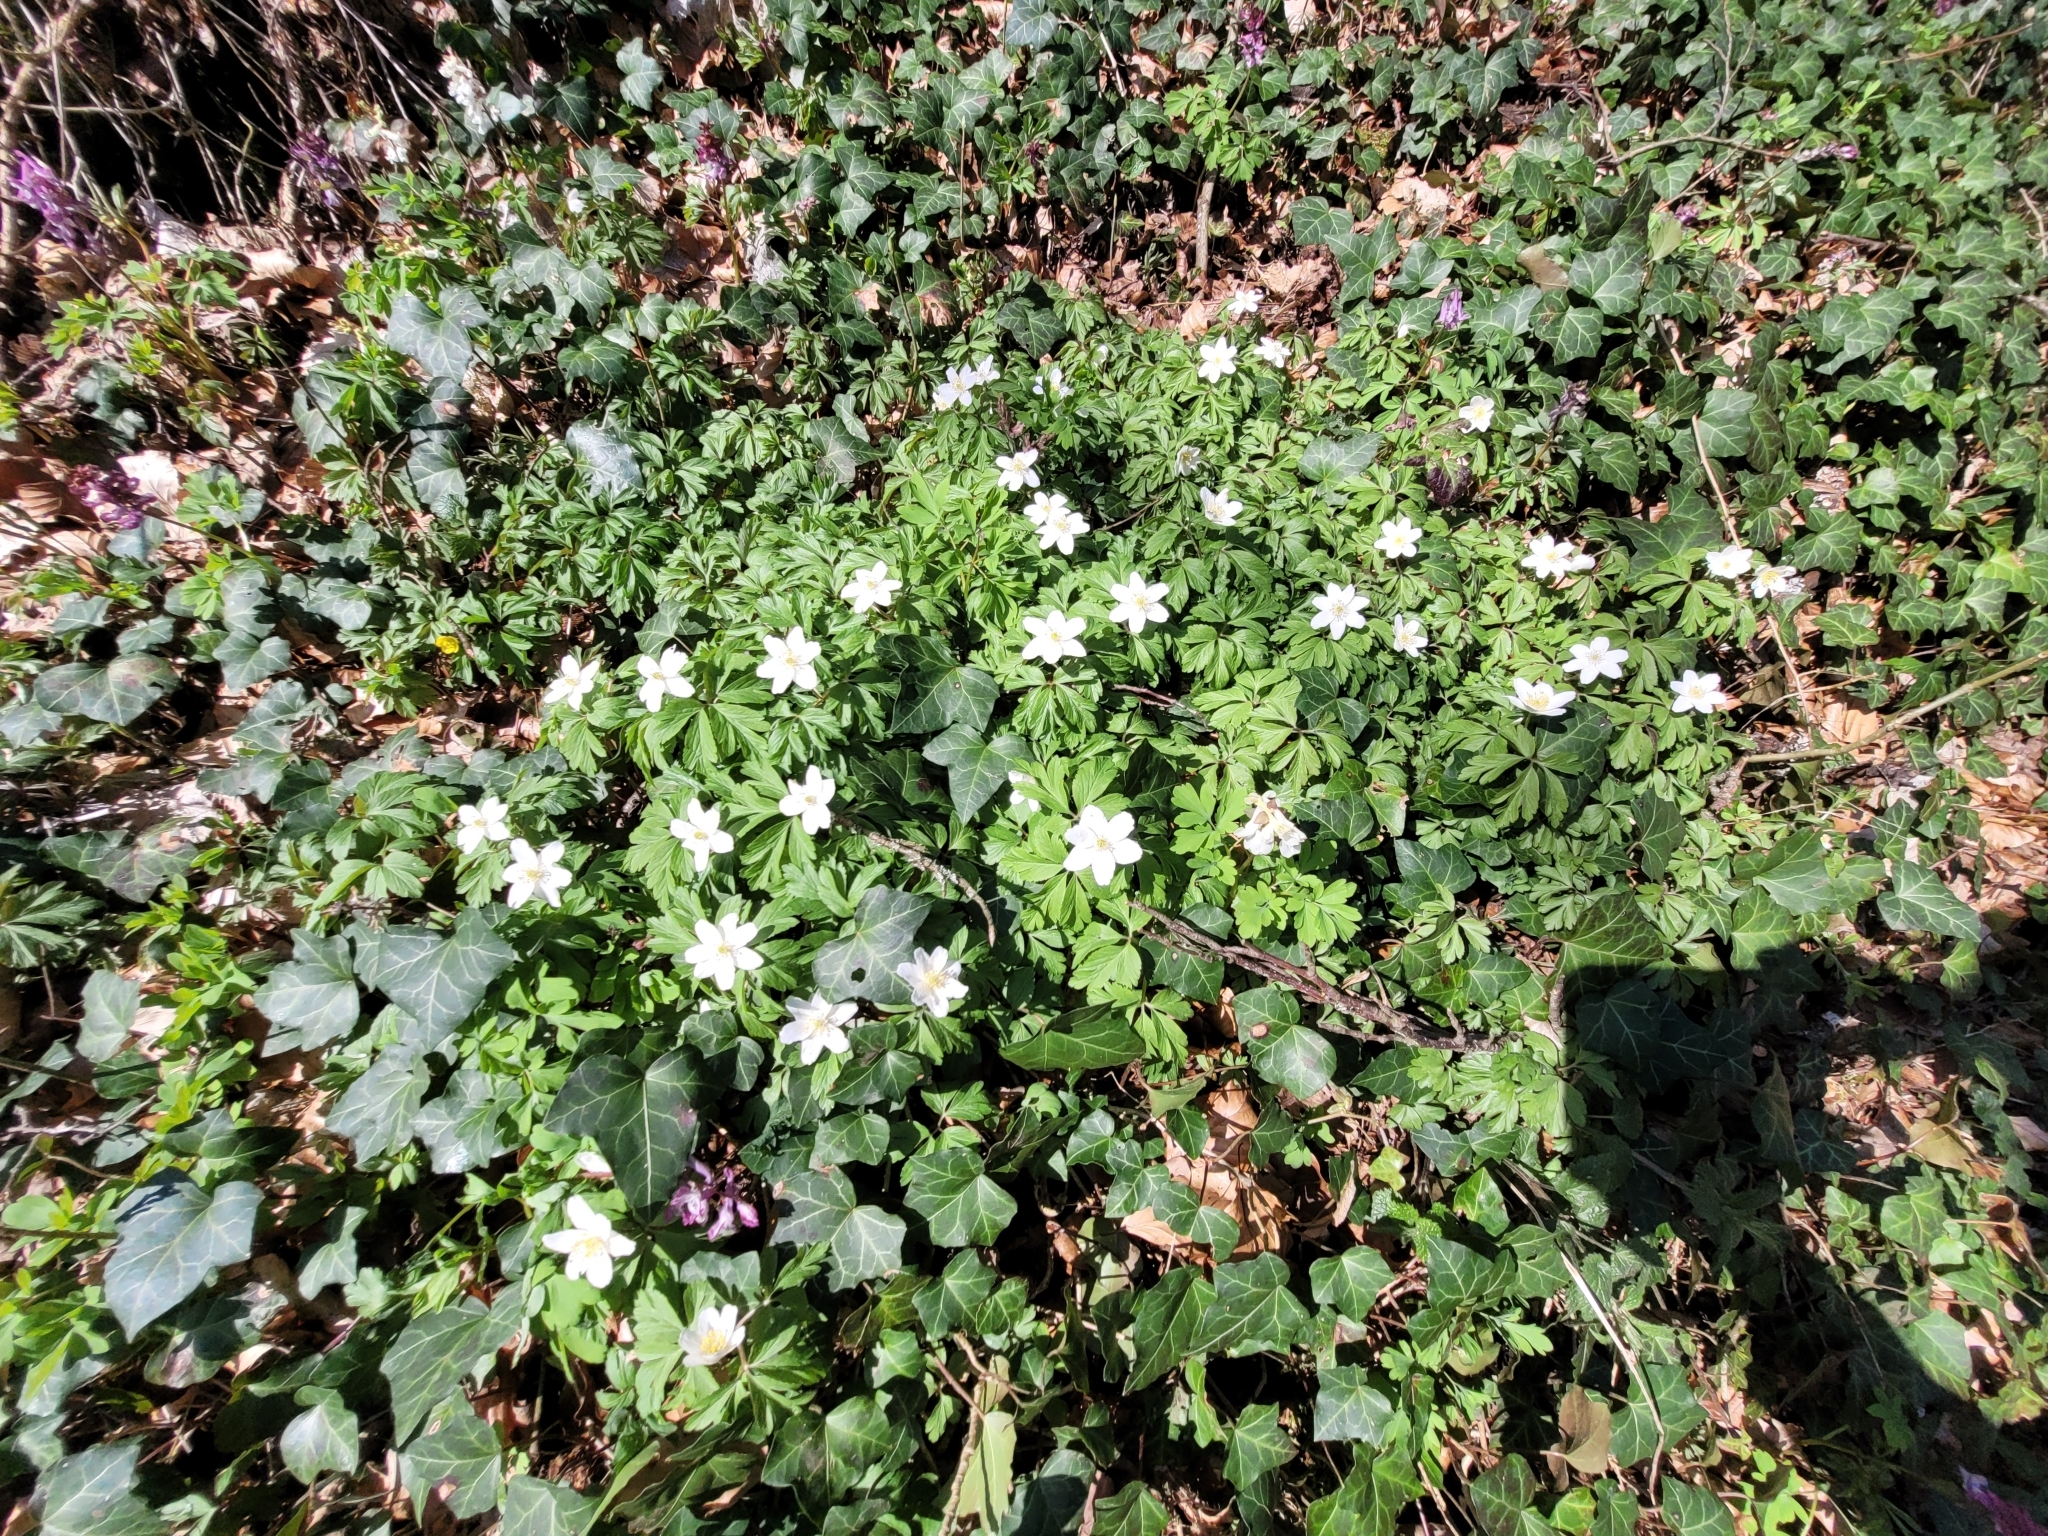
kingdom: Plantae
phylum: Tracheophyta
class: Magnoliopsida
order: Ranunculales
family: Ranunculaceae
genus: Anemone
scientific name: Anemone nemorosa
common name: Wood anemone
